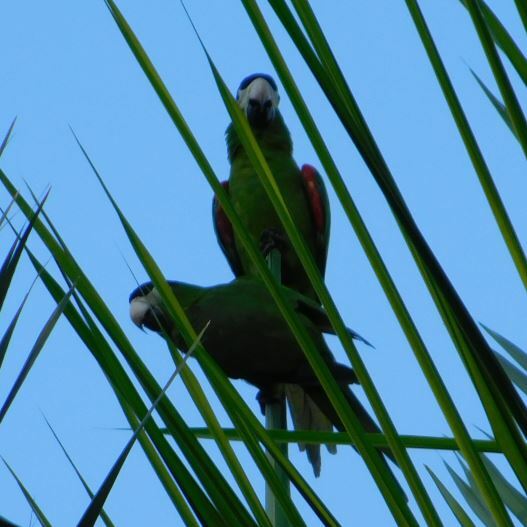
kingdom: Animalia
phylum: Chordata
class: Aves
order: Psittaciformes
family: Psittacidae
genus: Diopsittaca
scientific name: Diopsittaca nobilis
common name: Red-shouldered macaw
